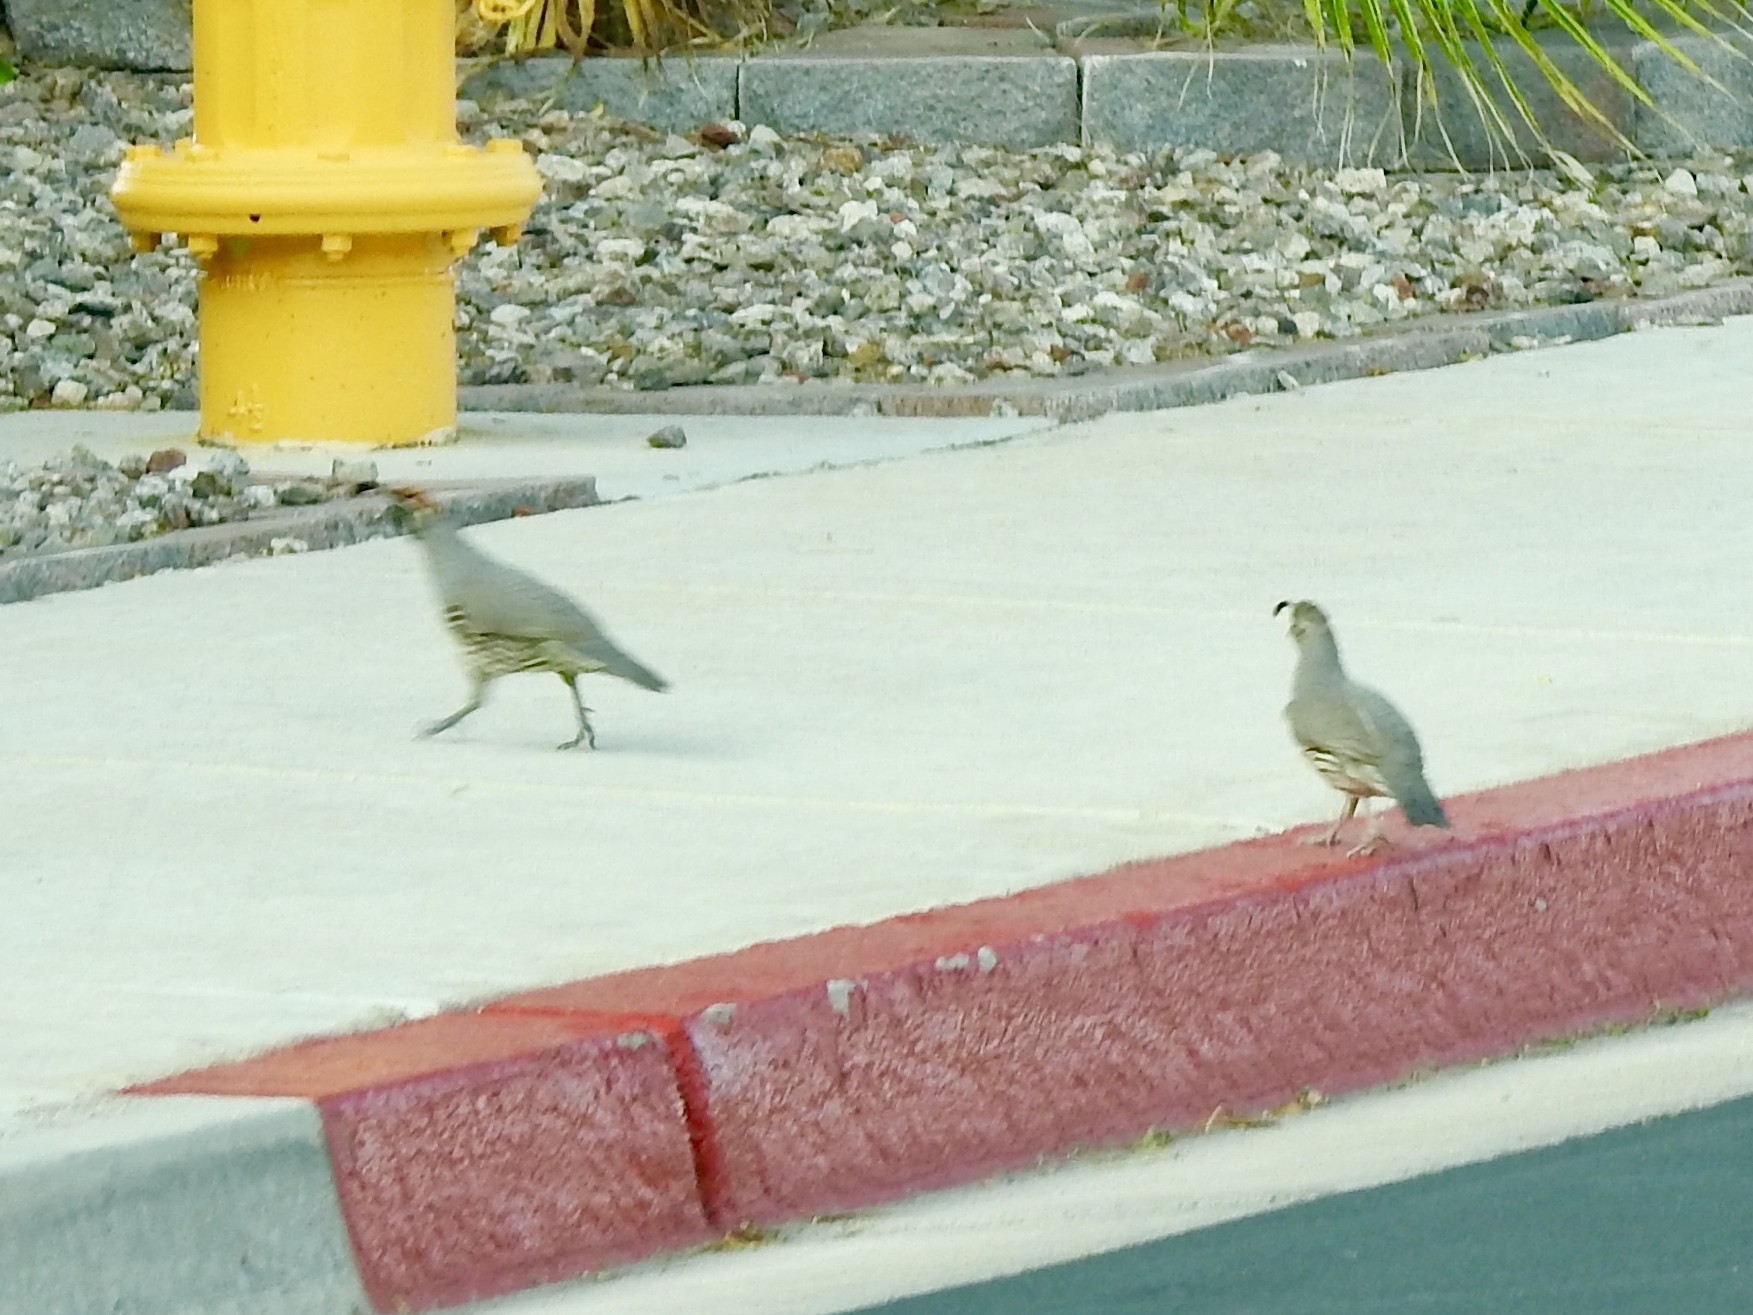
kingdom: Animalia
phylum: Chordata
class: Aves
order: Galliformes
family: Odontophoridae
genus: Callipepla
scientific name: Callipepla gambelii
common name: Gambel's quail
